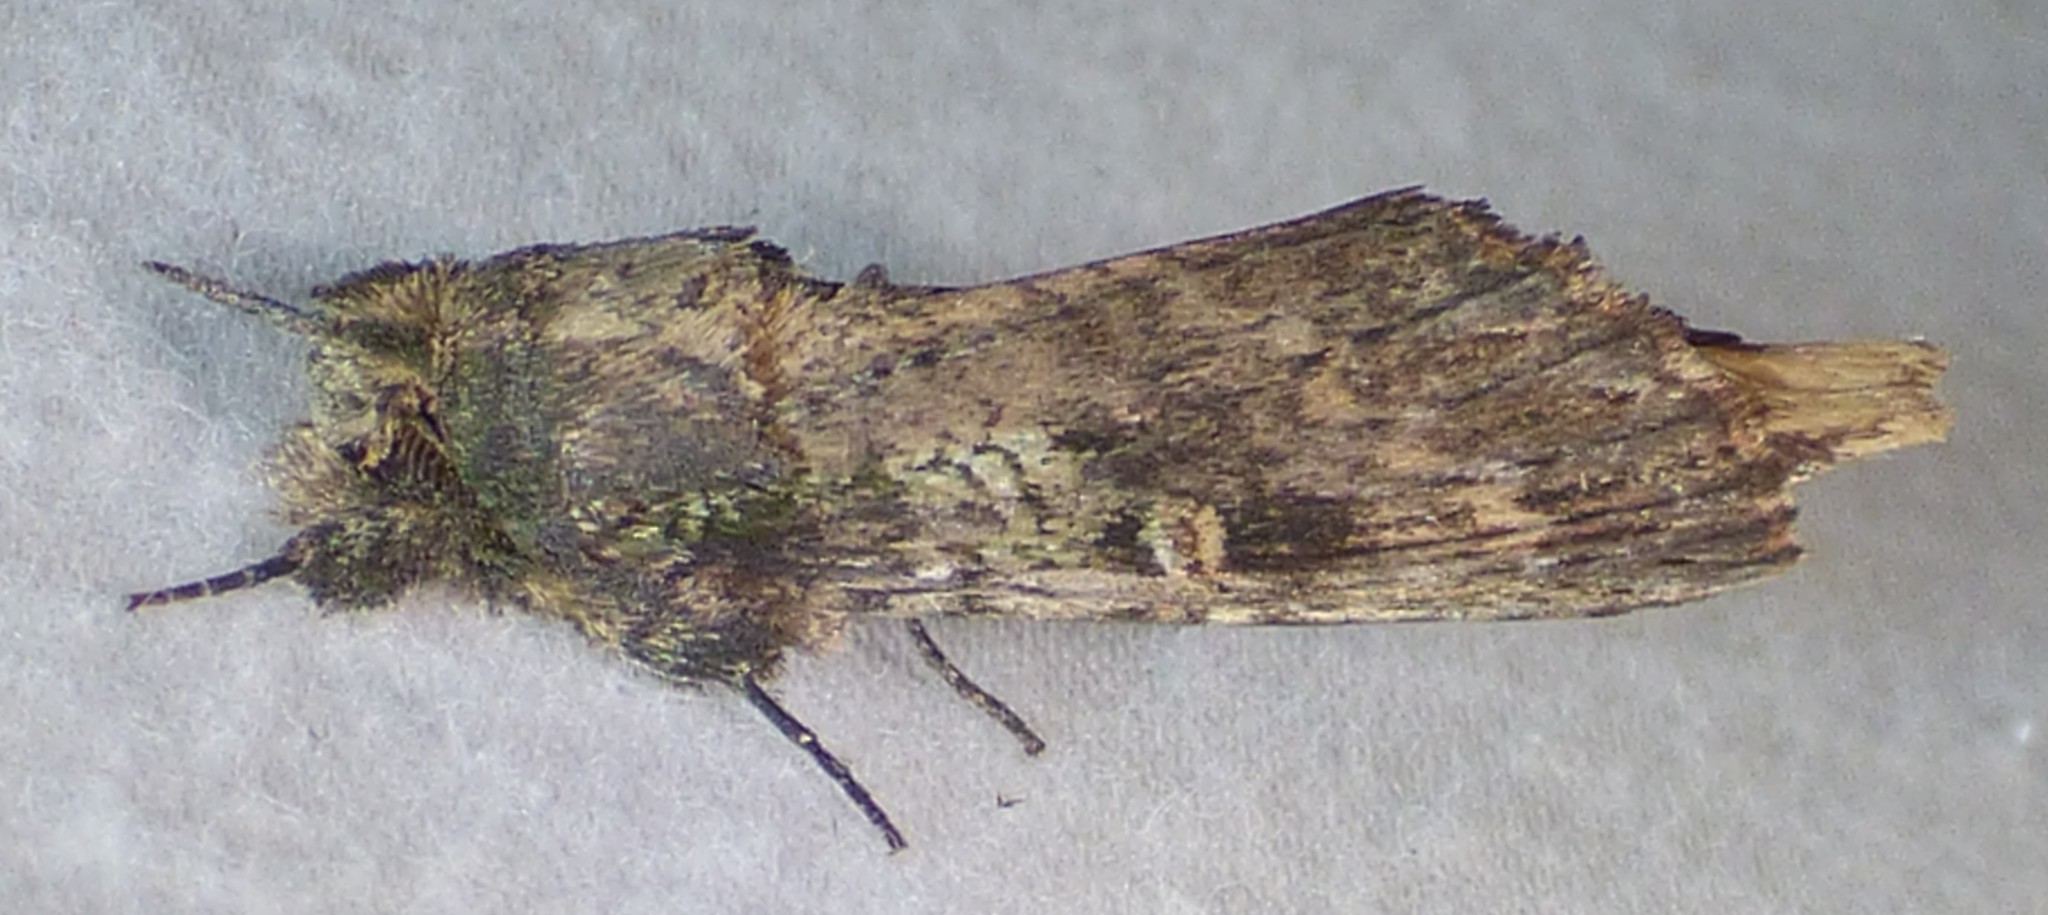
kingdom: Animalia
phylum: Arthropoda
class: Insecta
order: Lepidoptera
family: Notodontidae
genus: Schizura
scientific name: Schizura ipomaeae
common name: Morning-glory prominent
